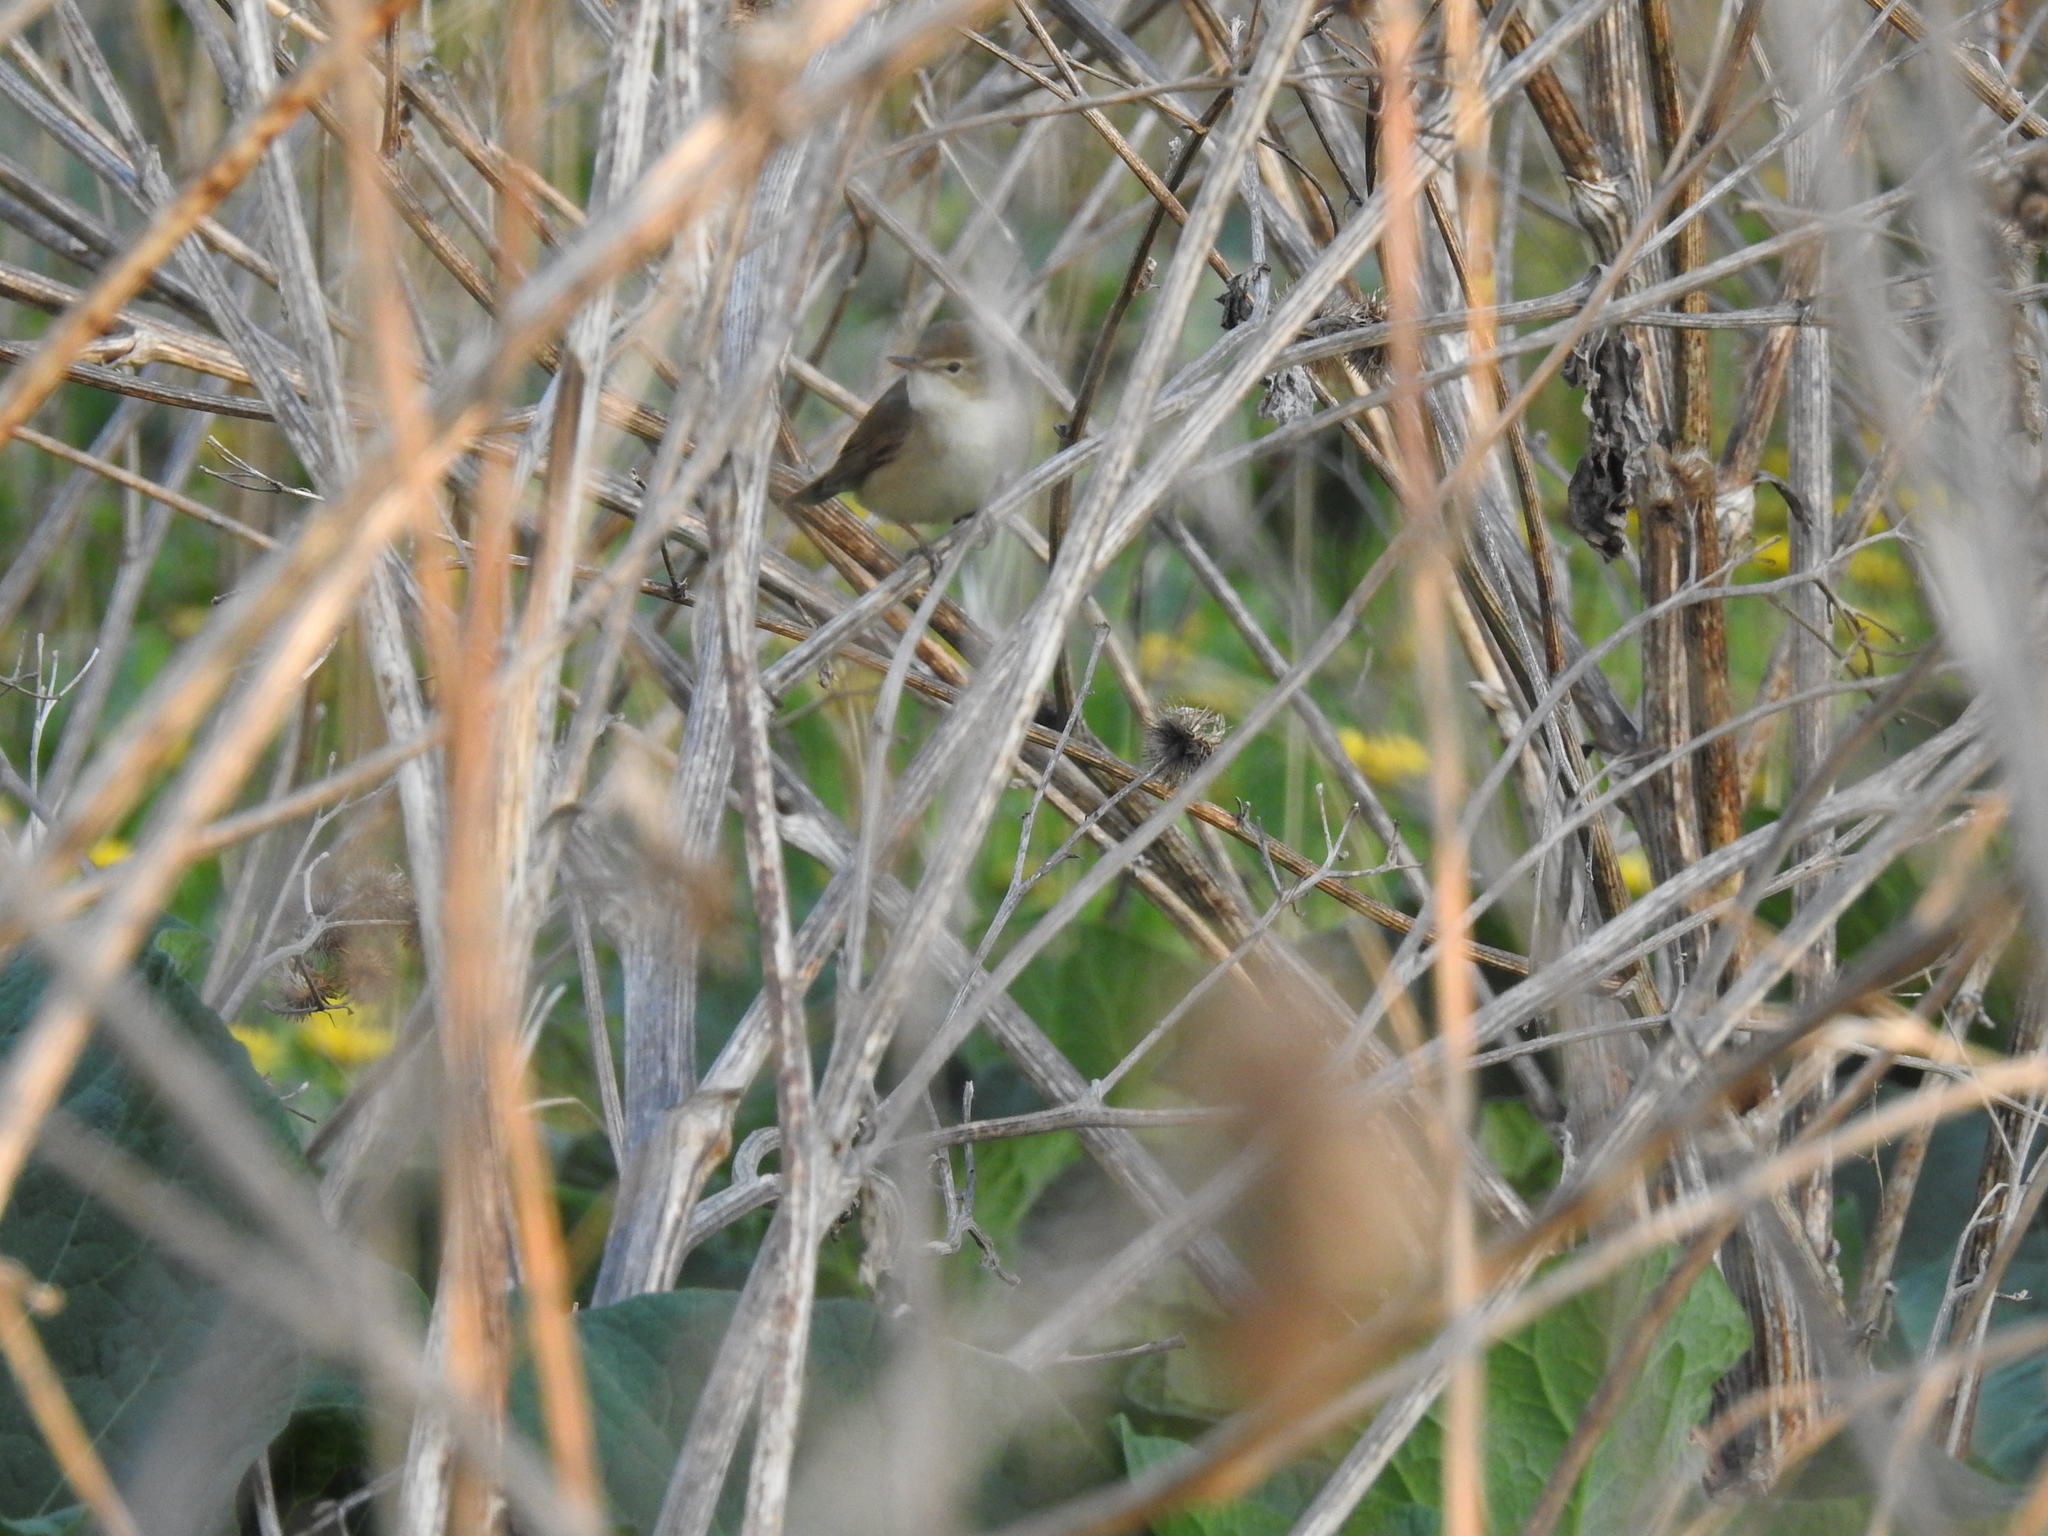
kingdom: Animalia
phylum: Chordata
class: Aves
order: Passeriformes
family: Acrocephalidae
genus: Acrocephalus
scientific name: Acrocephalus dumetorum
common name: Blyth's reed warbler
